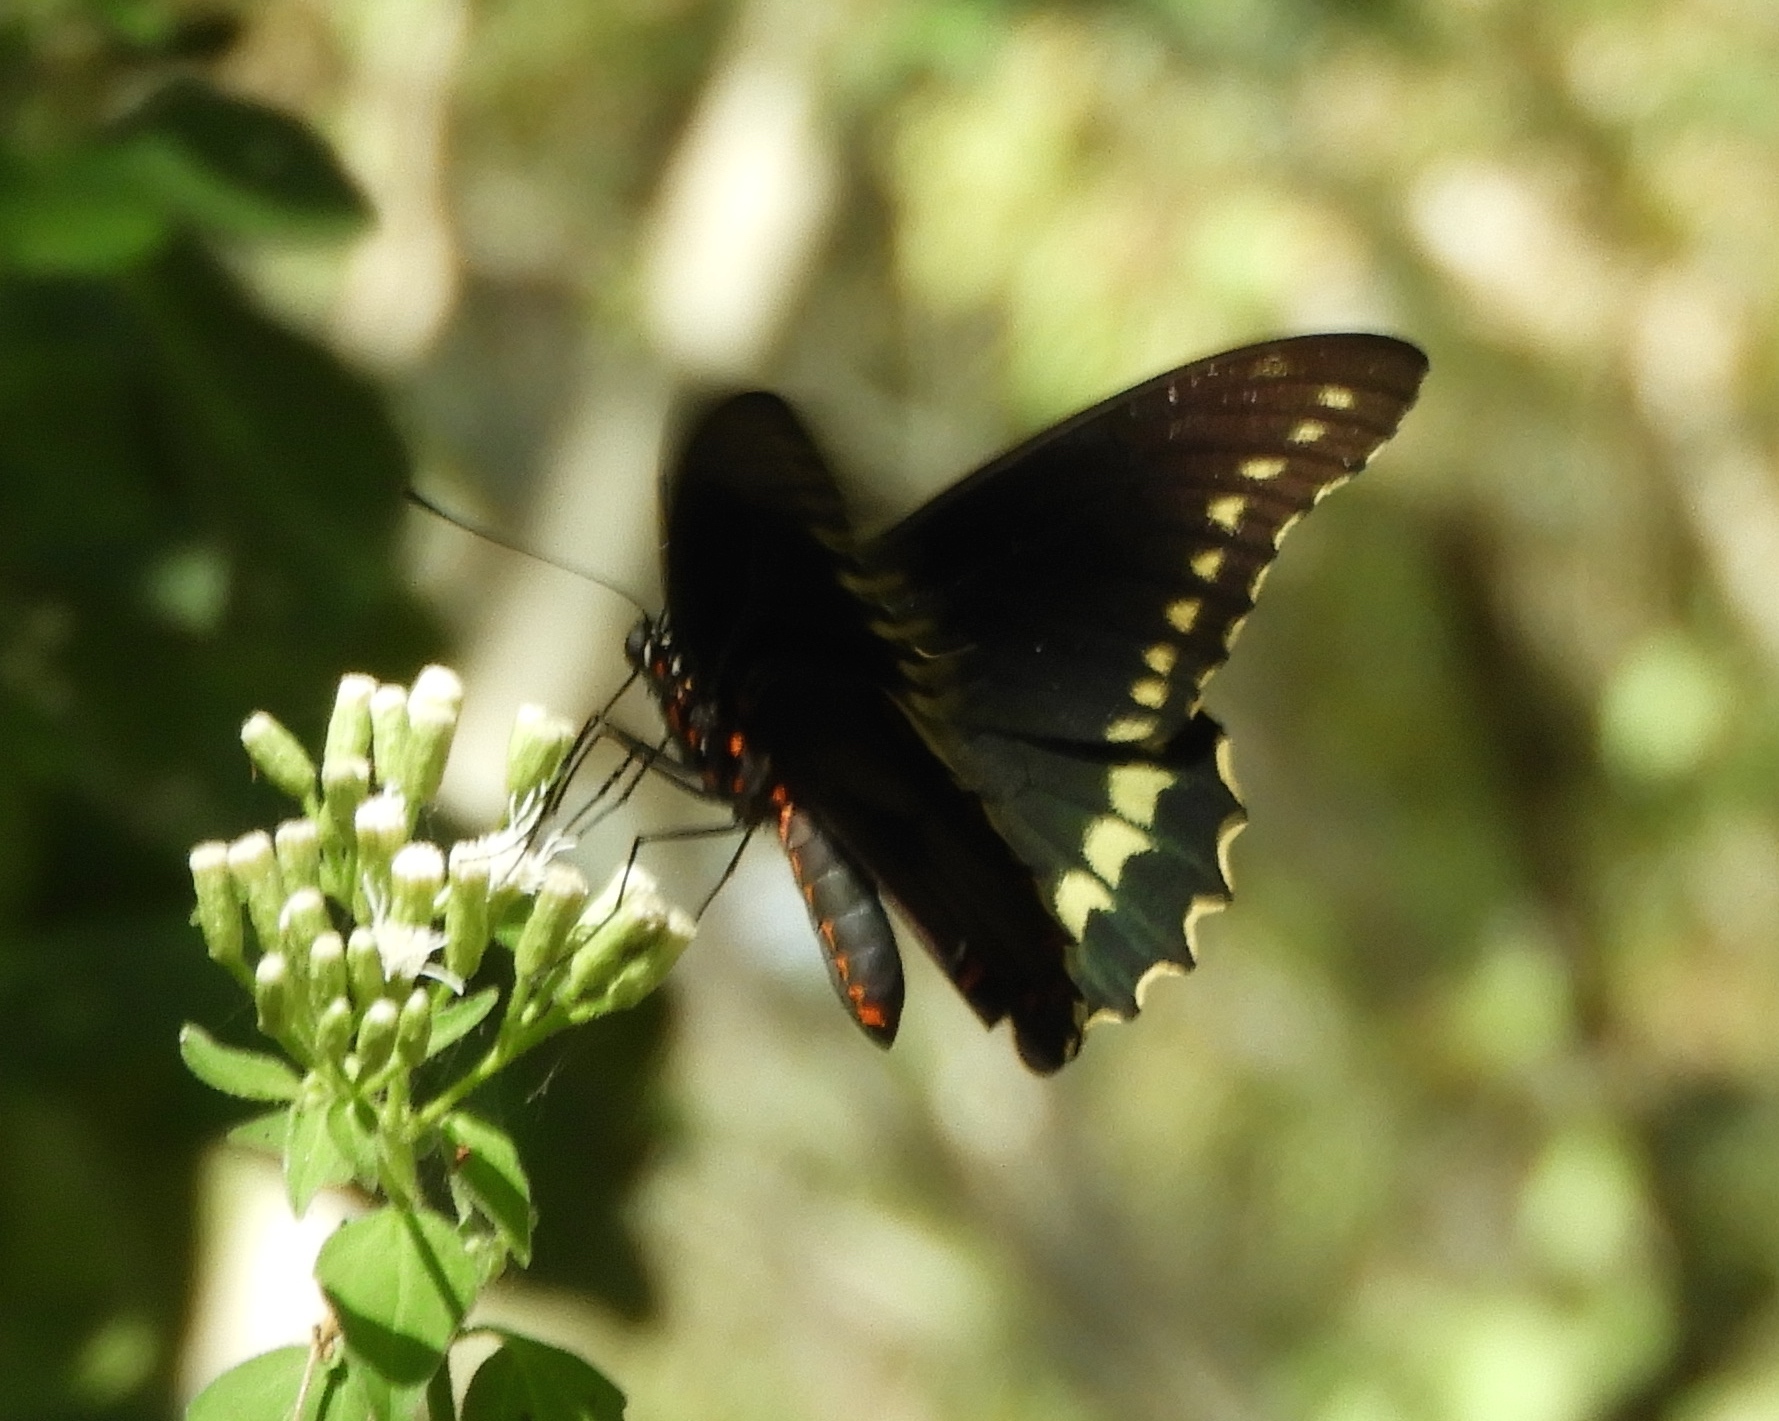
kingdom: Animalia
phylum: Arthropoda
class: Insecta
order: Lepidoptera
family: Papilionidae
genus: Battus
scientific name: Battus polydamas
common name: Polydamas swallowtail
